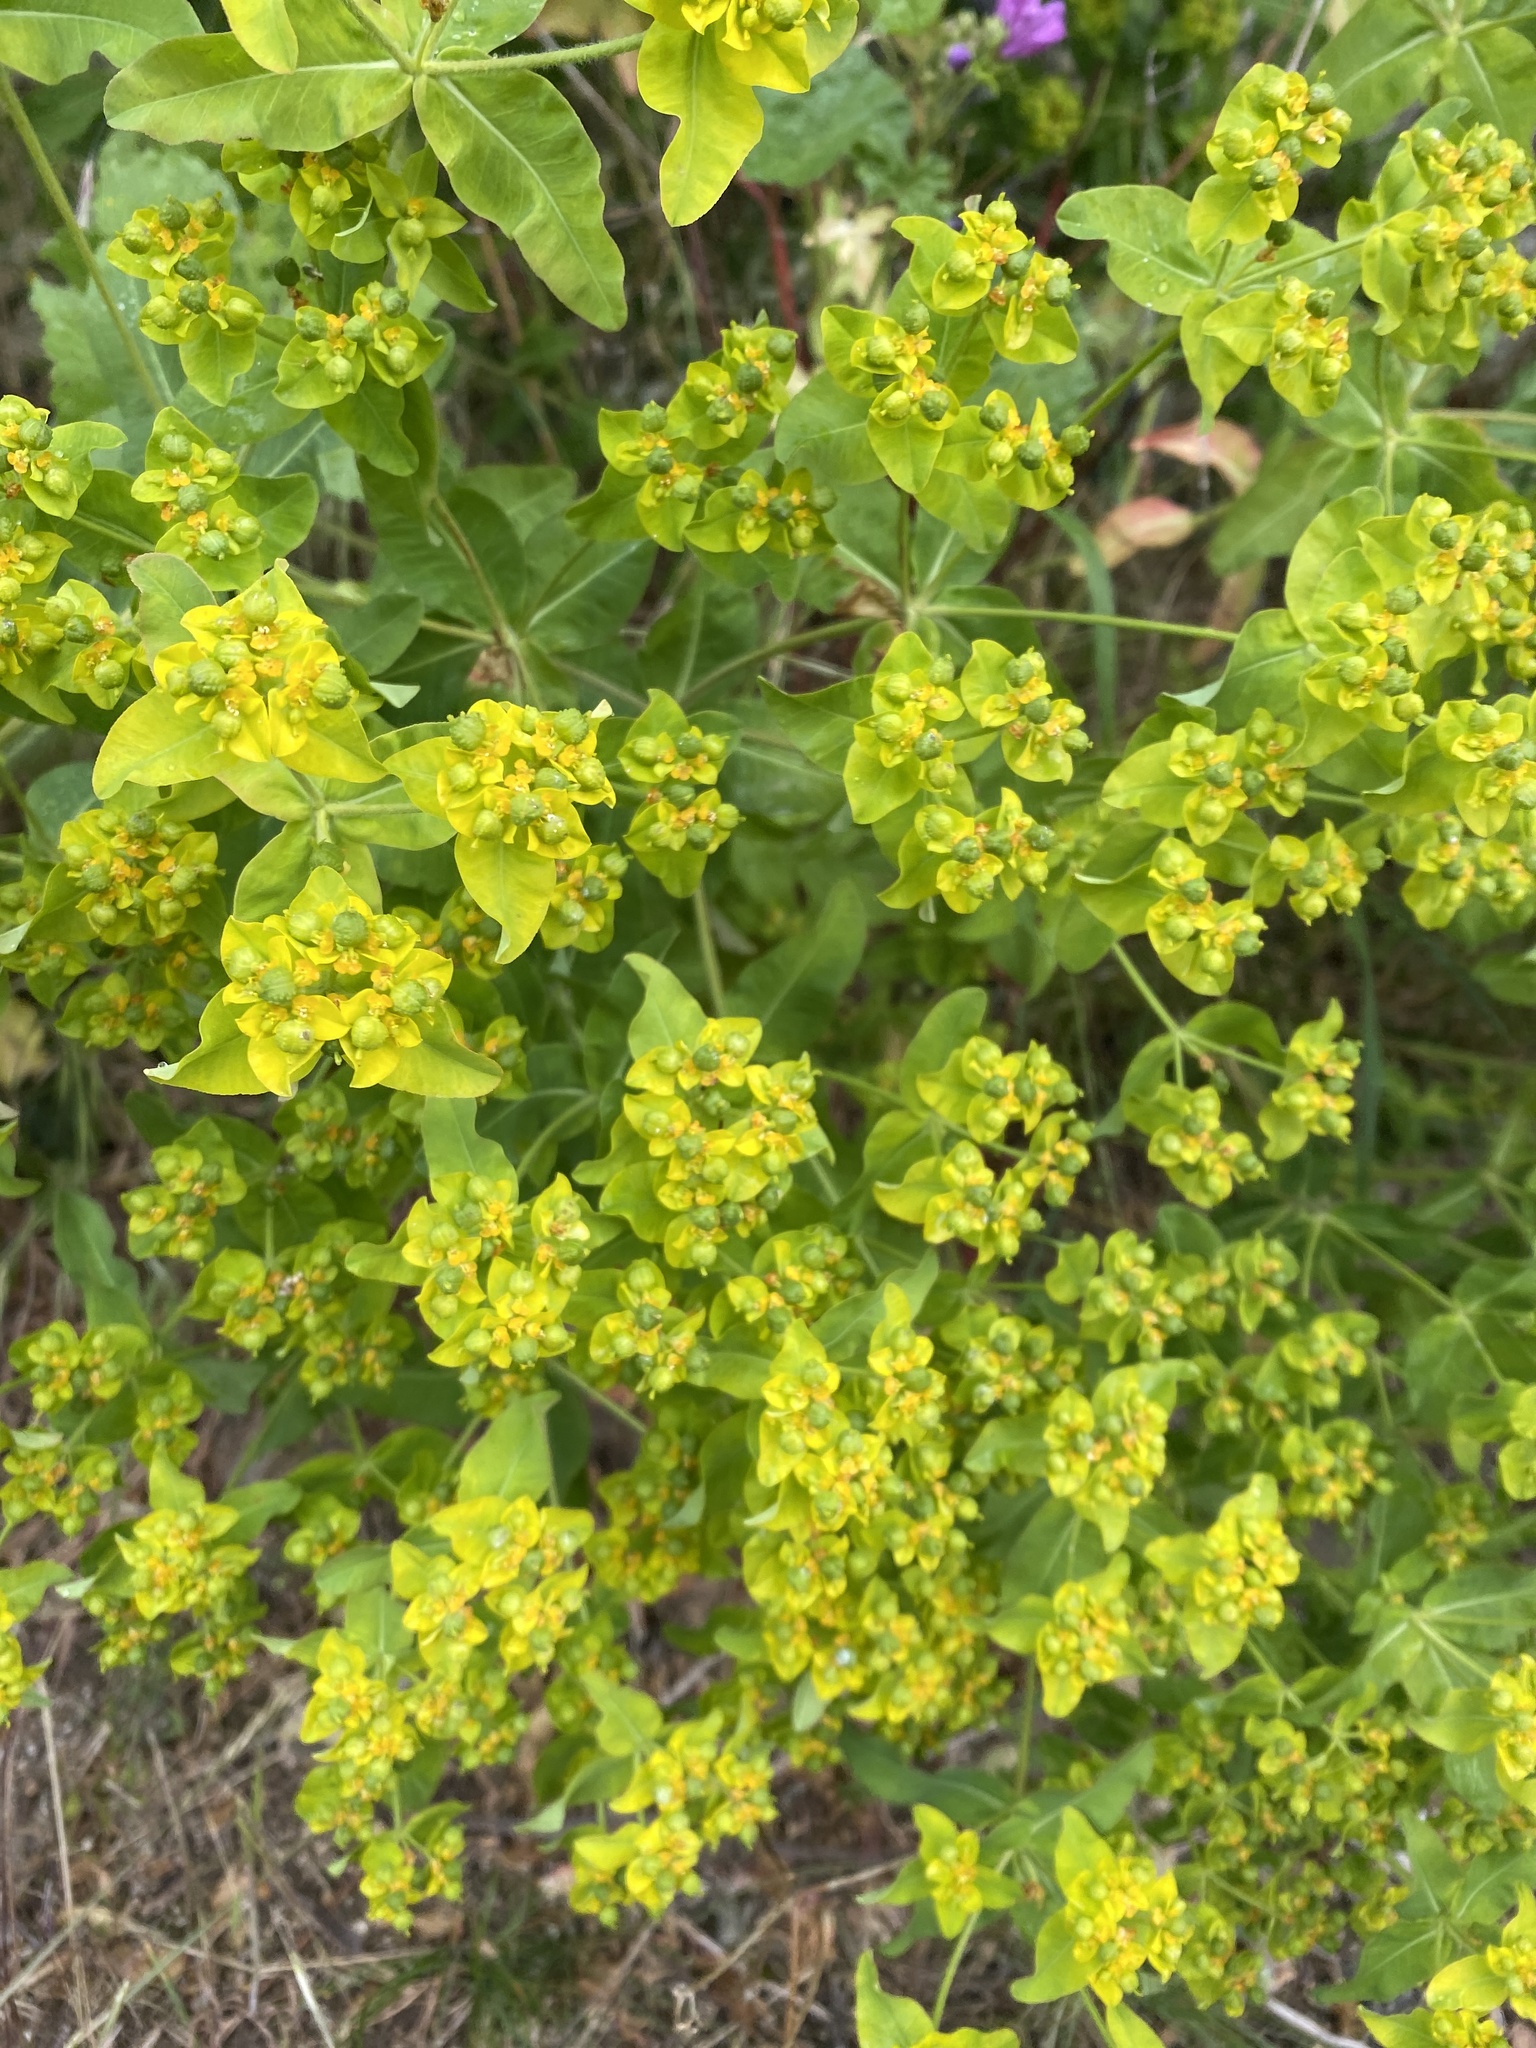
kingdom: Plantae
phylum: Tracheophyta
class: Magnoliopsida
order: Malpighiales
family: Euphorbiaceae
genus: Euphorbia
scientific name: Euphorbia oblongata
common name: Balkan spurge
